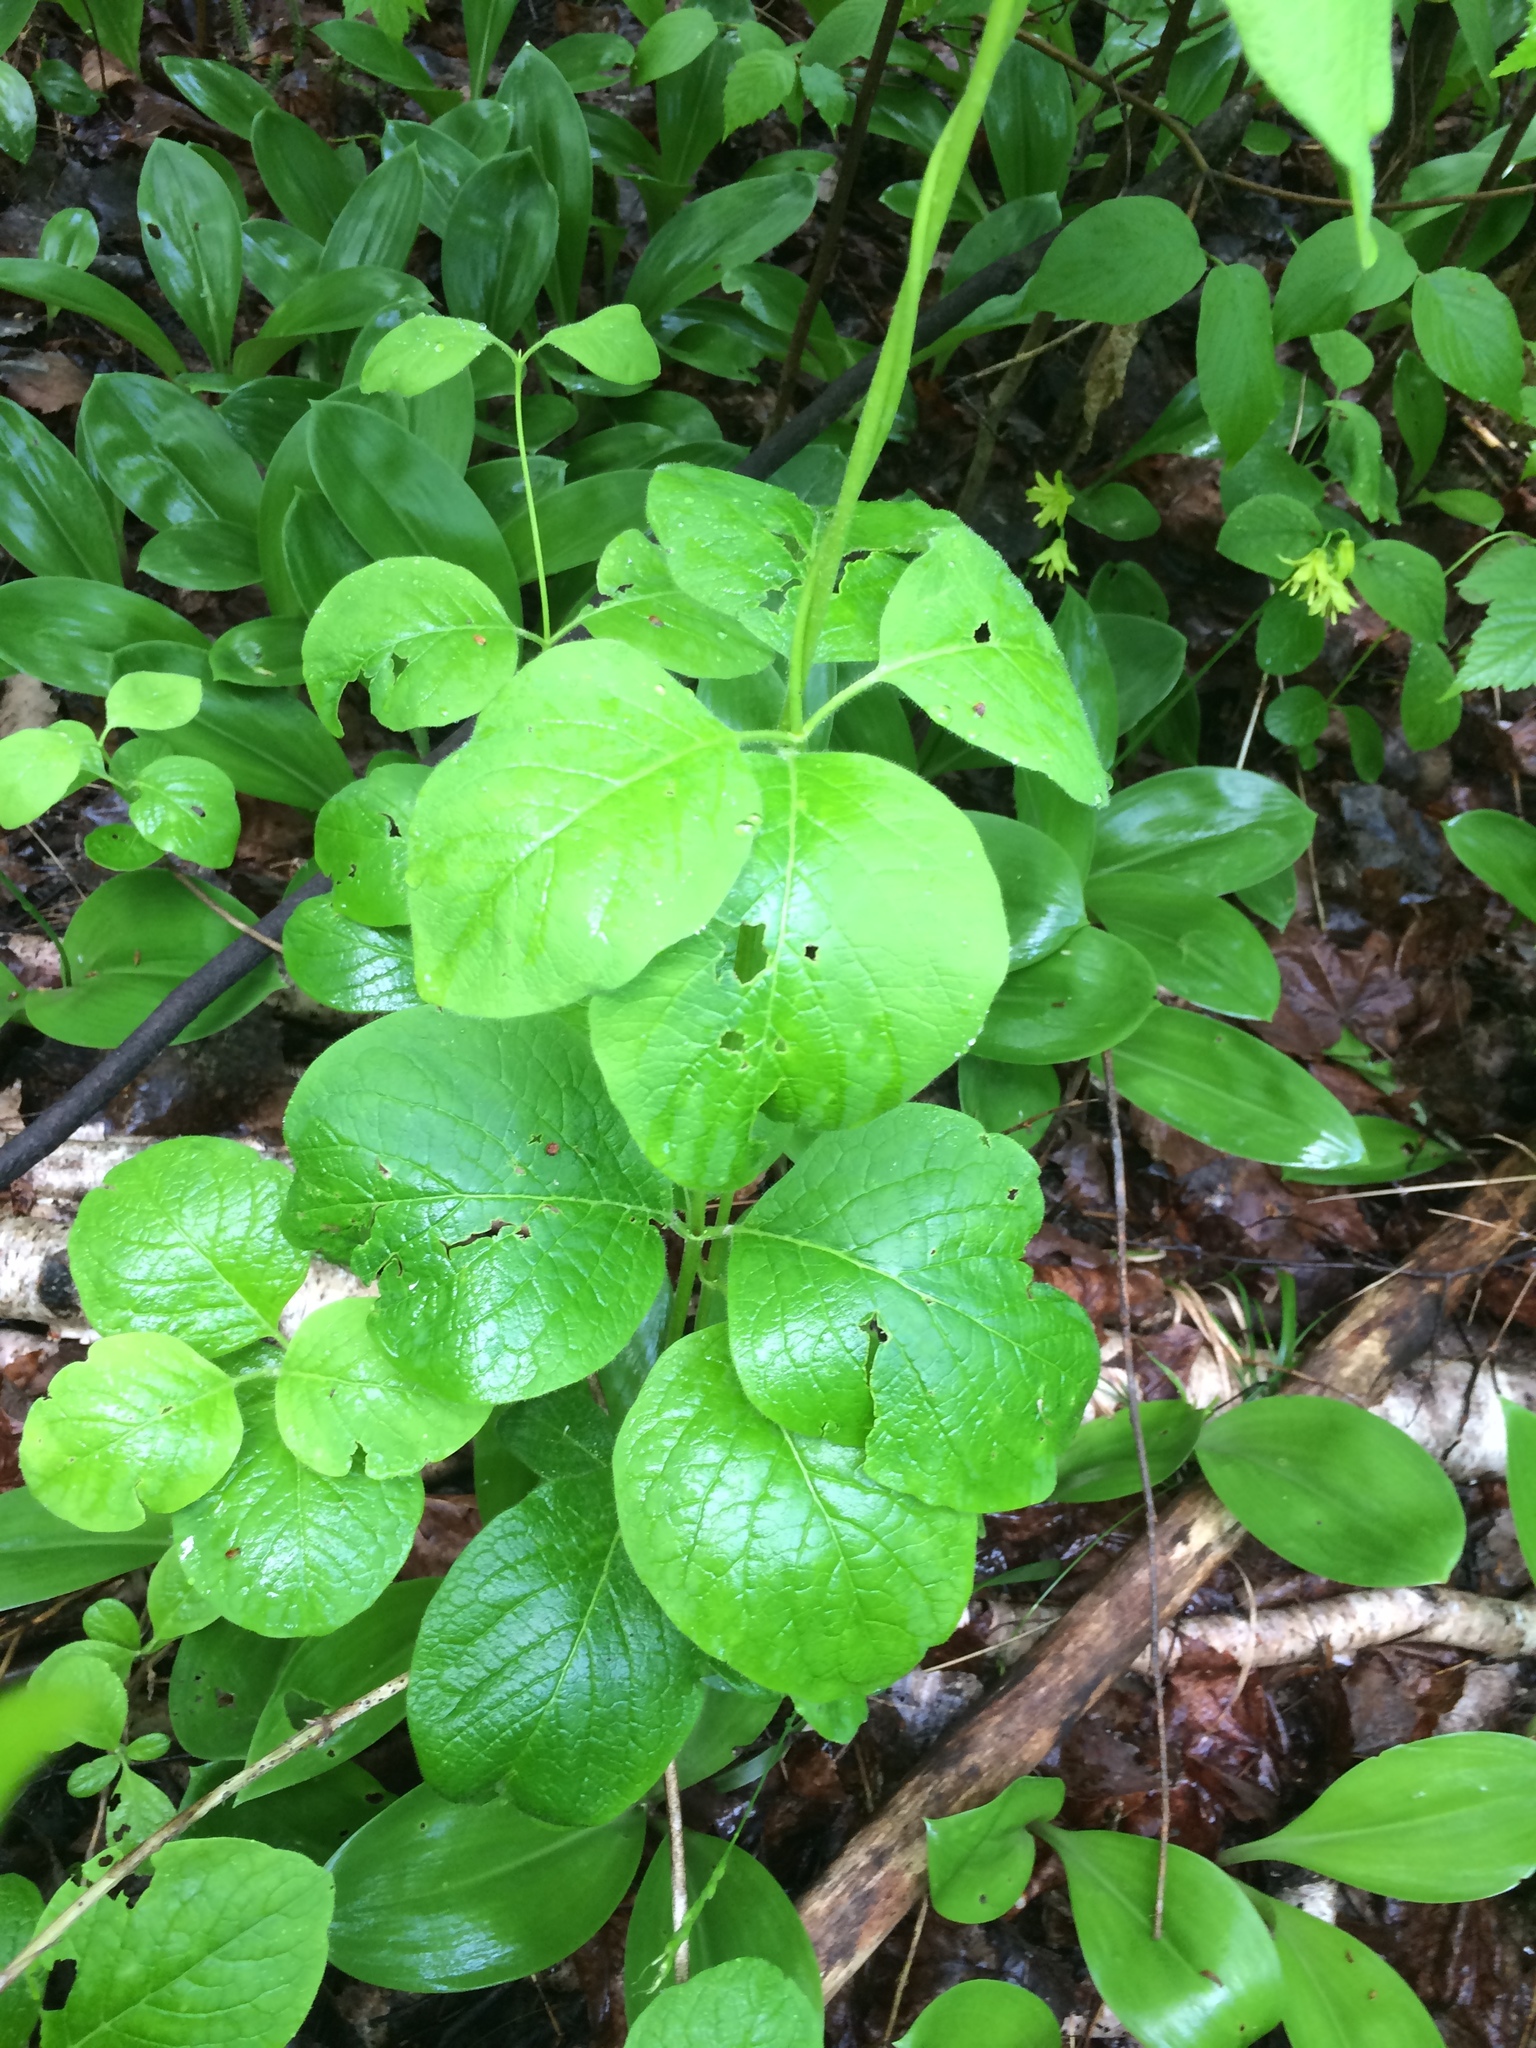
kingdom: Plantae
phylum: Tracheophyta
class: Magnoliopsida
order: Dipsacales
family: Caprifoliaceae
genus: Lonicera
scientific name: Lonicera hirsuta
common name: Hairy honeysuckle
